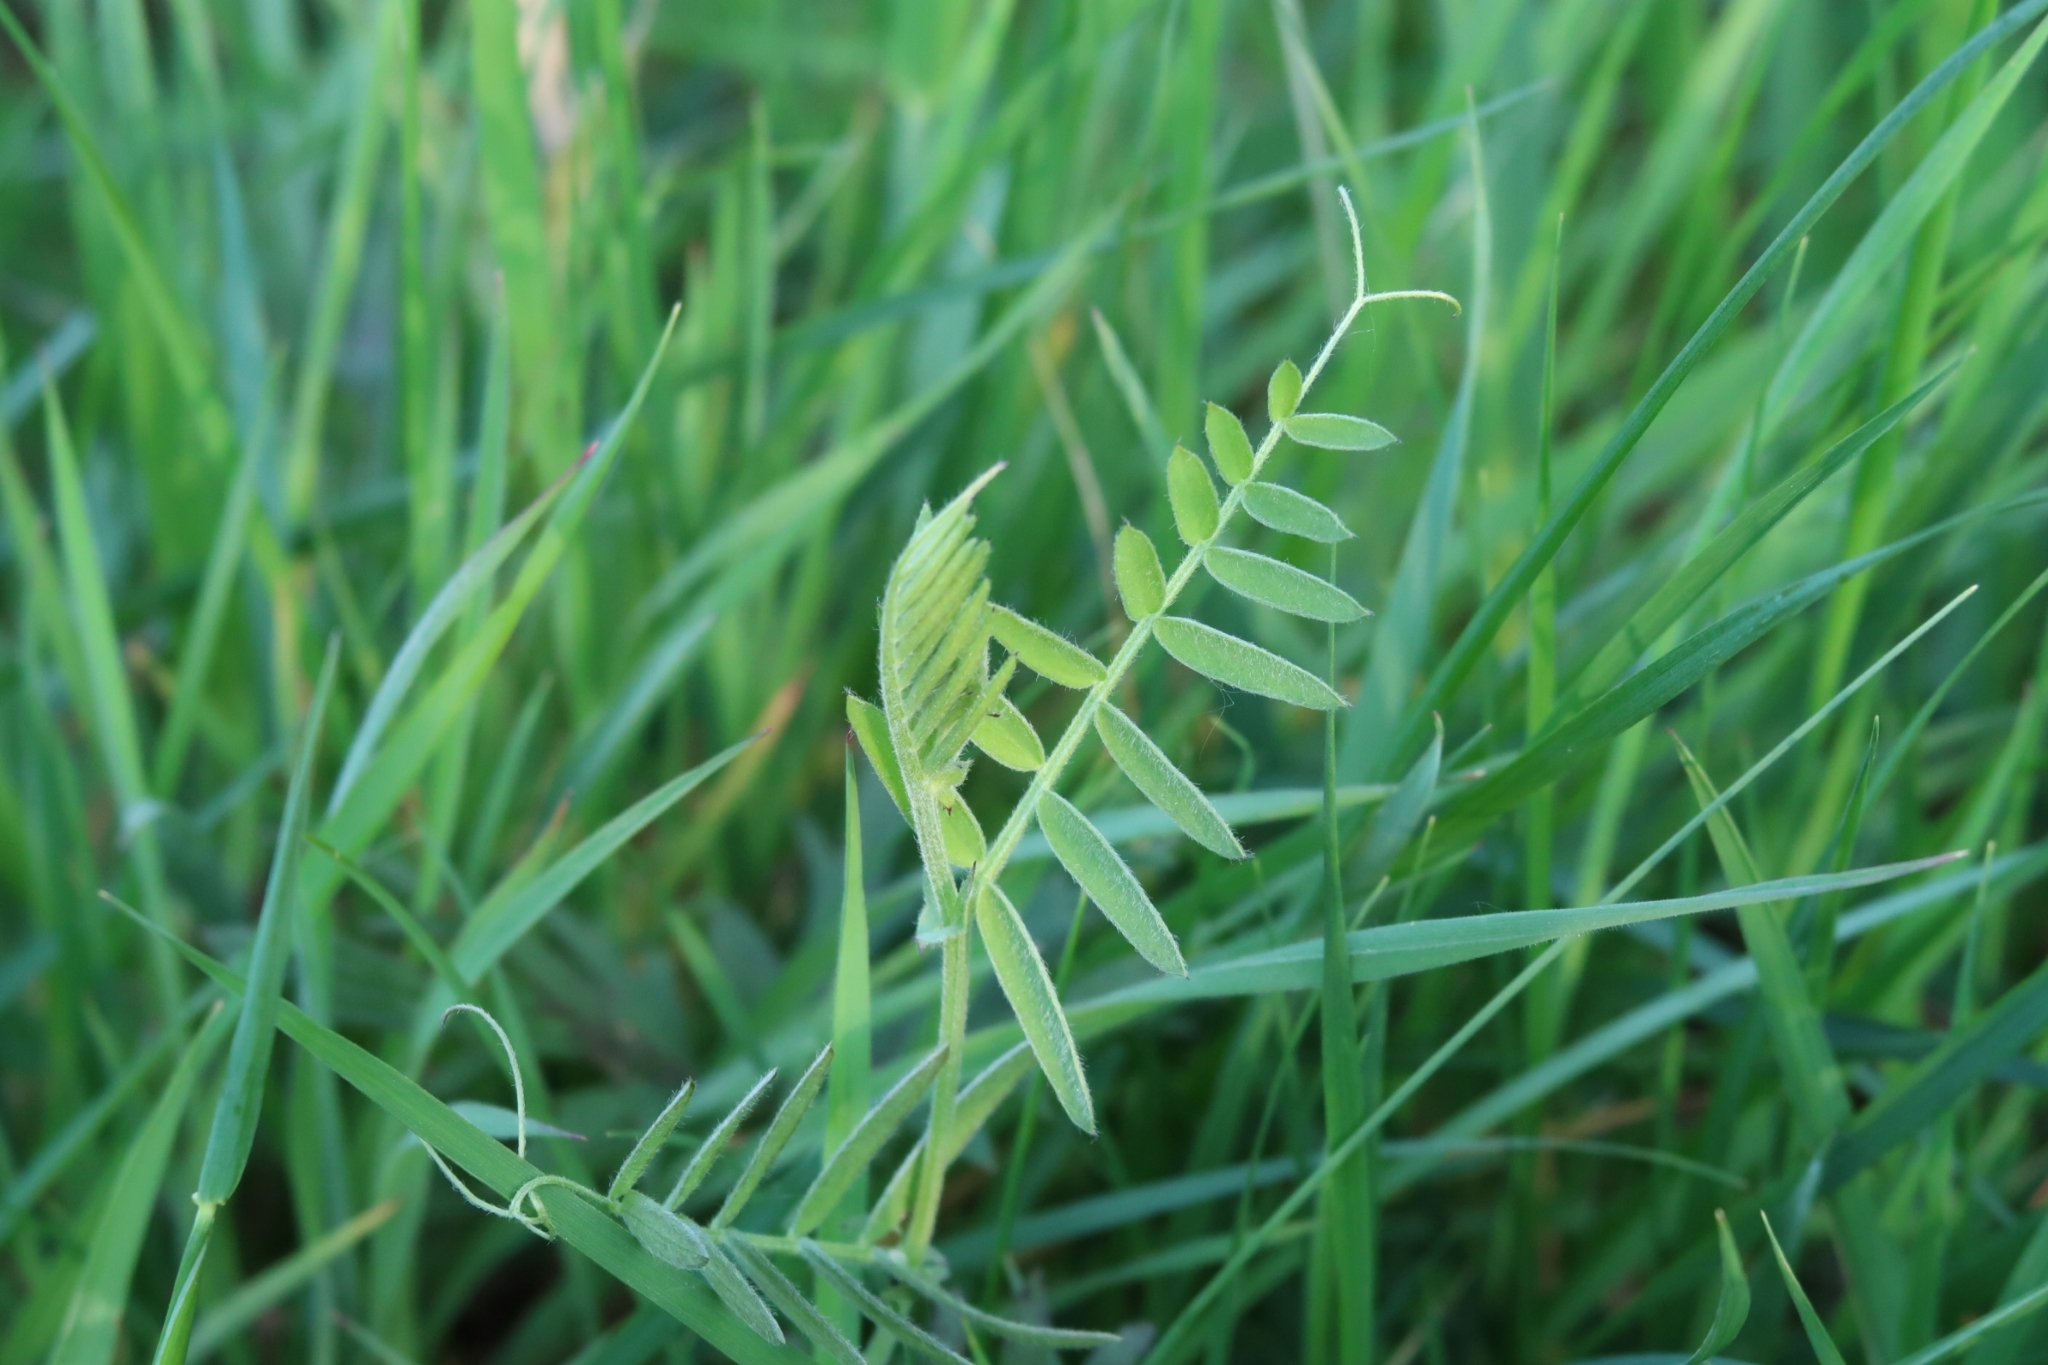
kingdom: Plantae
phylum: Tracheophyta
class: Magnoliopsida
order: Fabales
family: Fabaceae
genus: Vicia
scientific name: Vicia cracca
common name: Bird vetch
